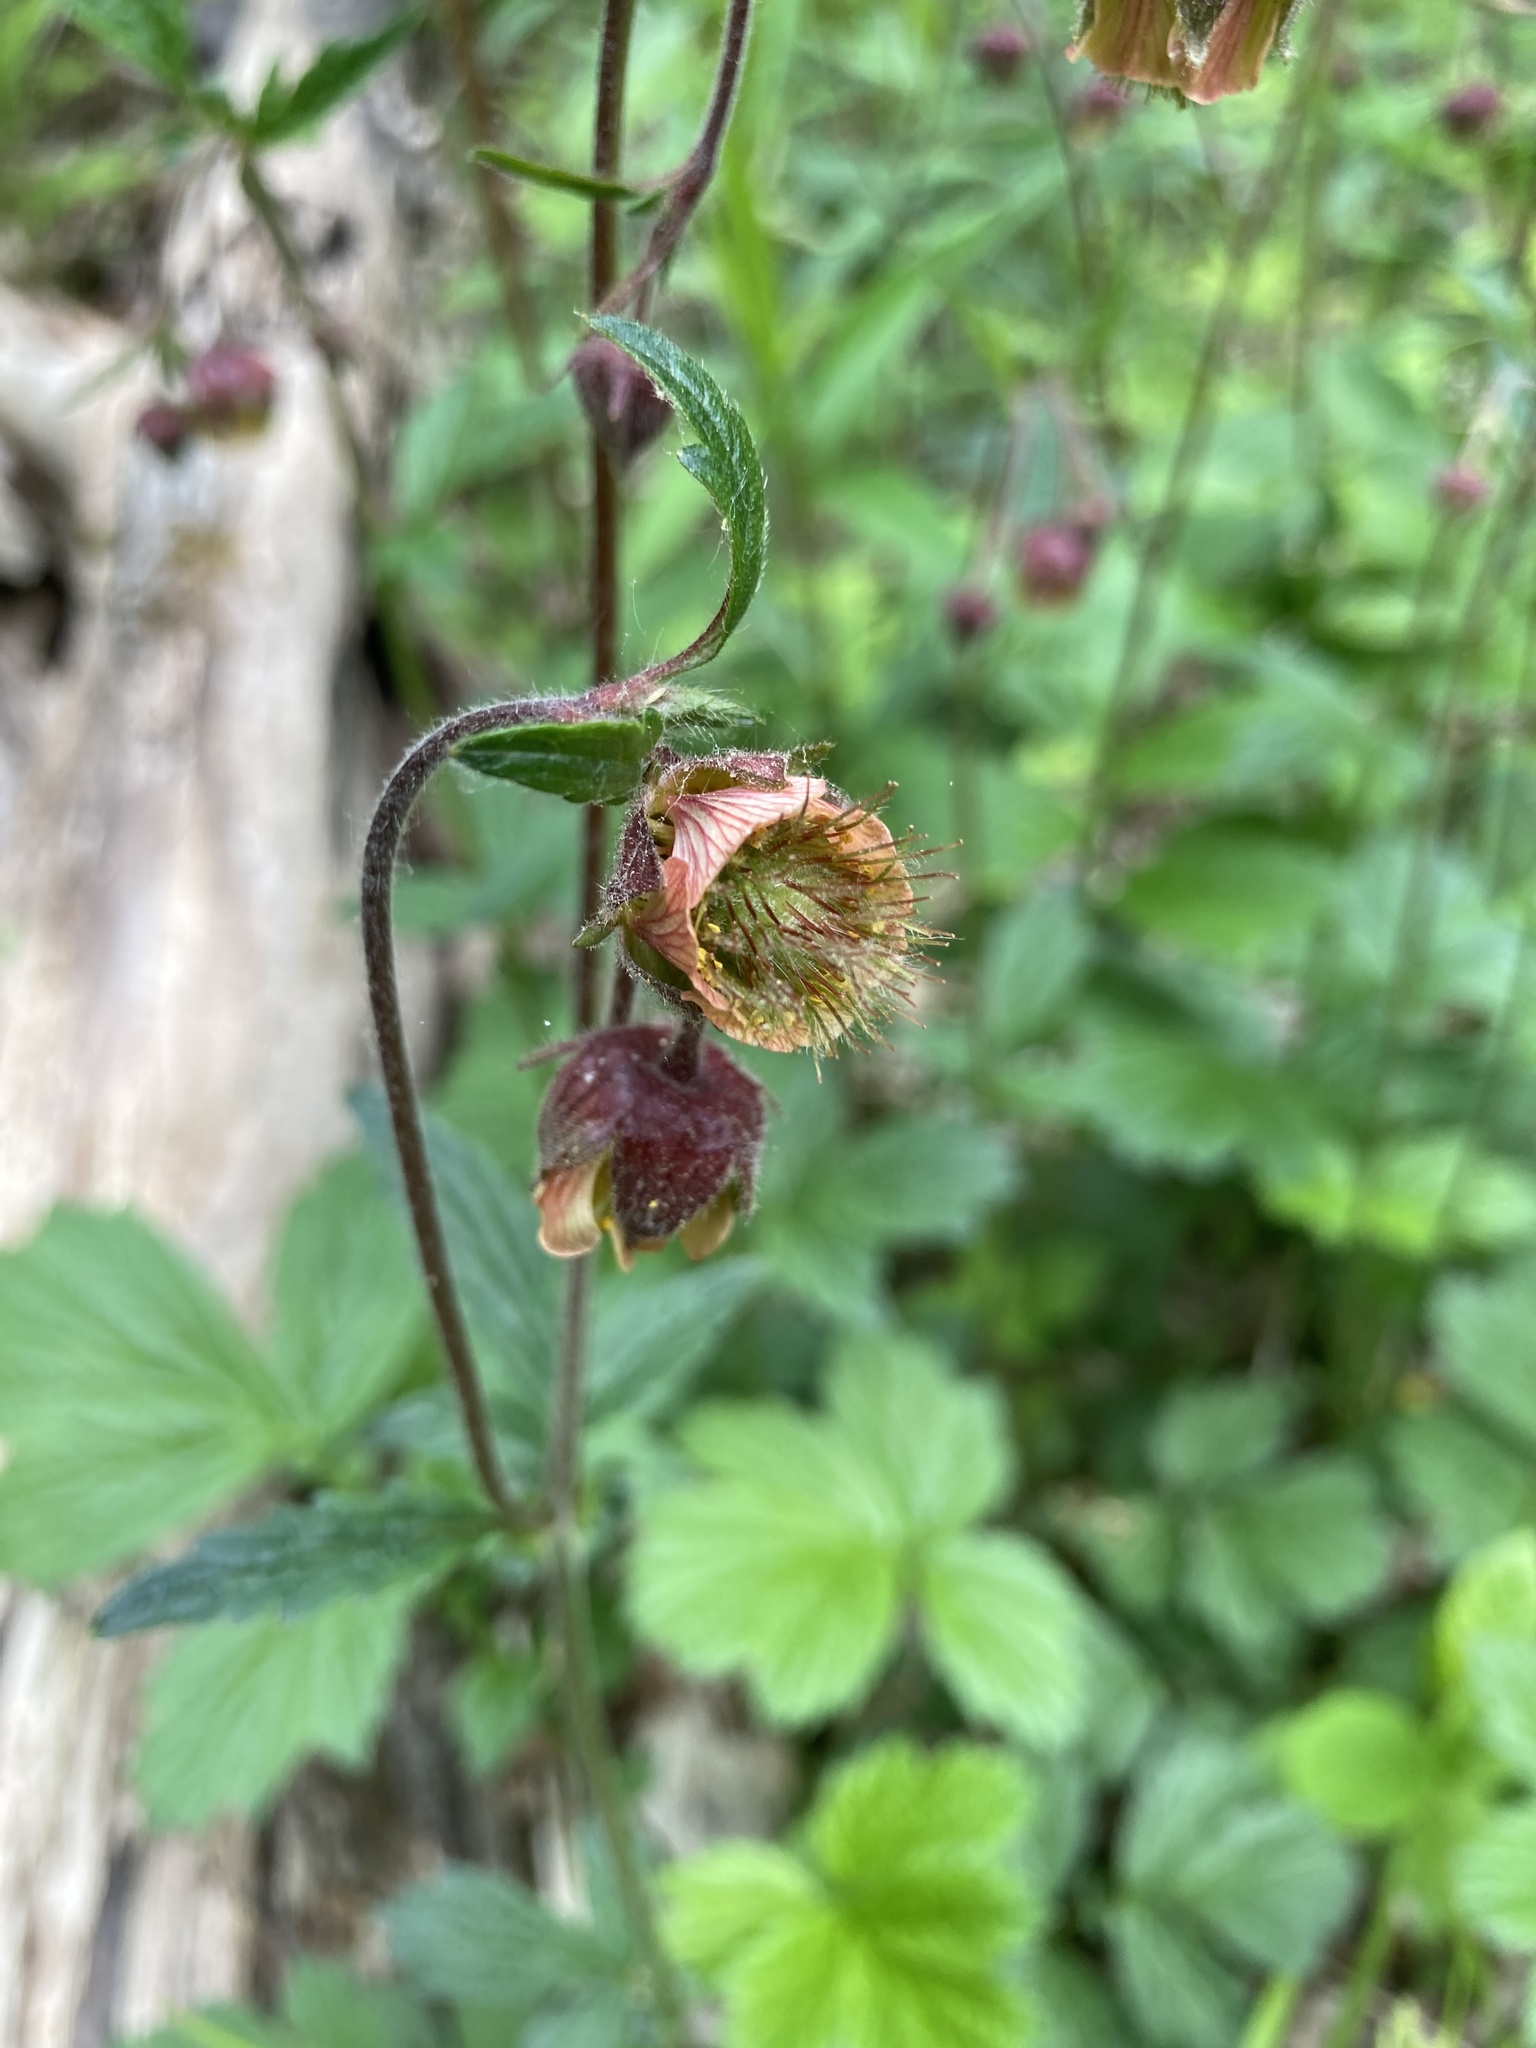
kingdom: Plantae
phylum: Tracheophyta
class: Magnoliopsida
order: Rosales
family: Rosaceae
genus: Geum
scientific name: Geum rivale
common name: Water avens
